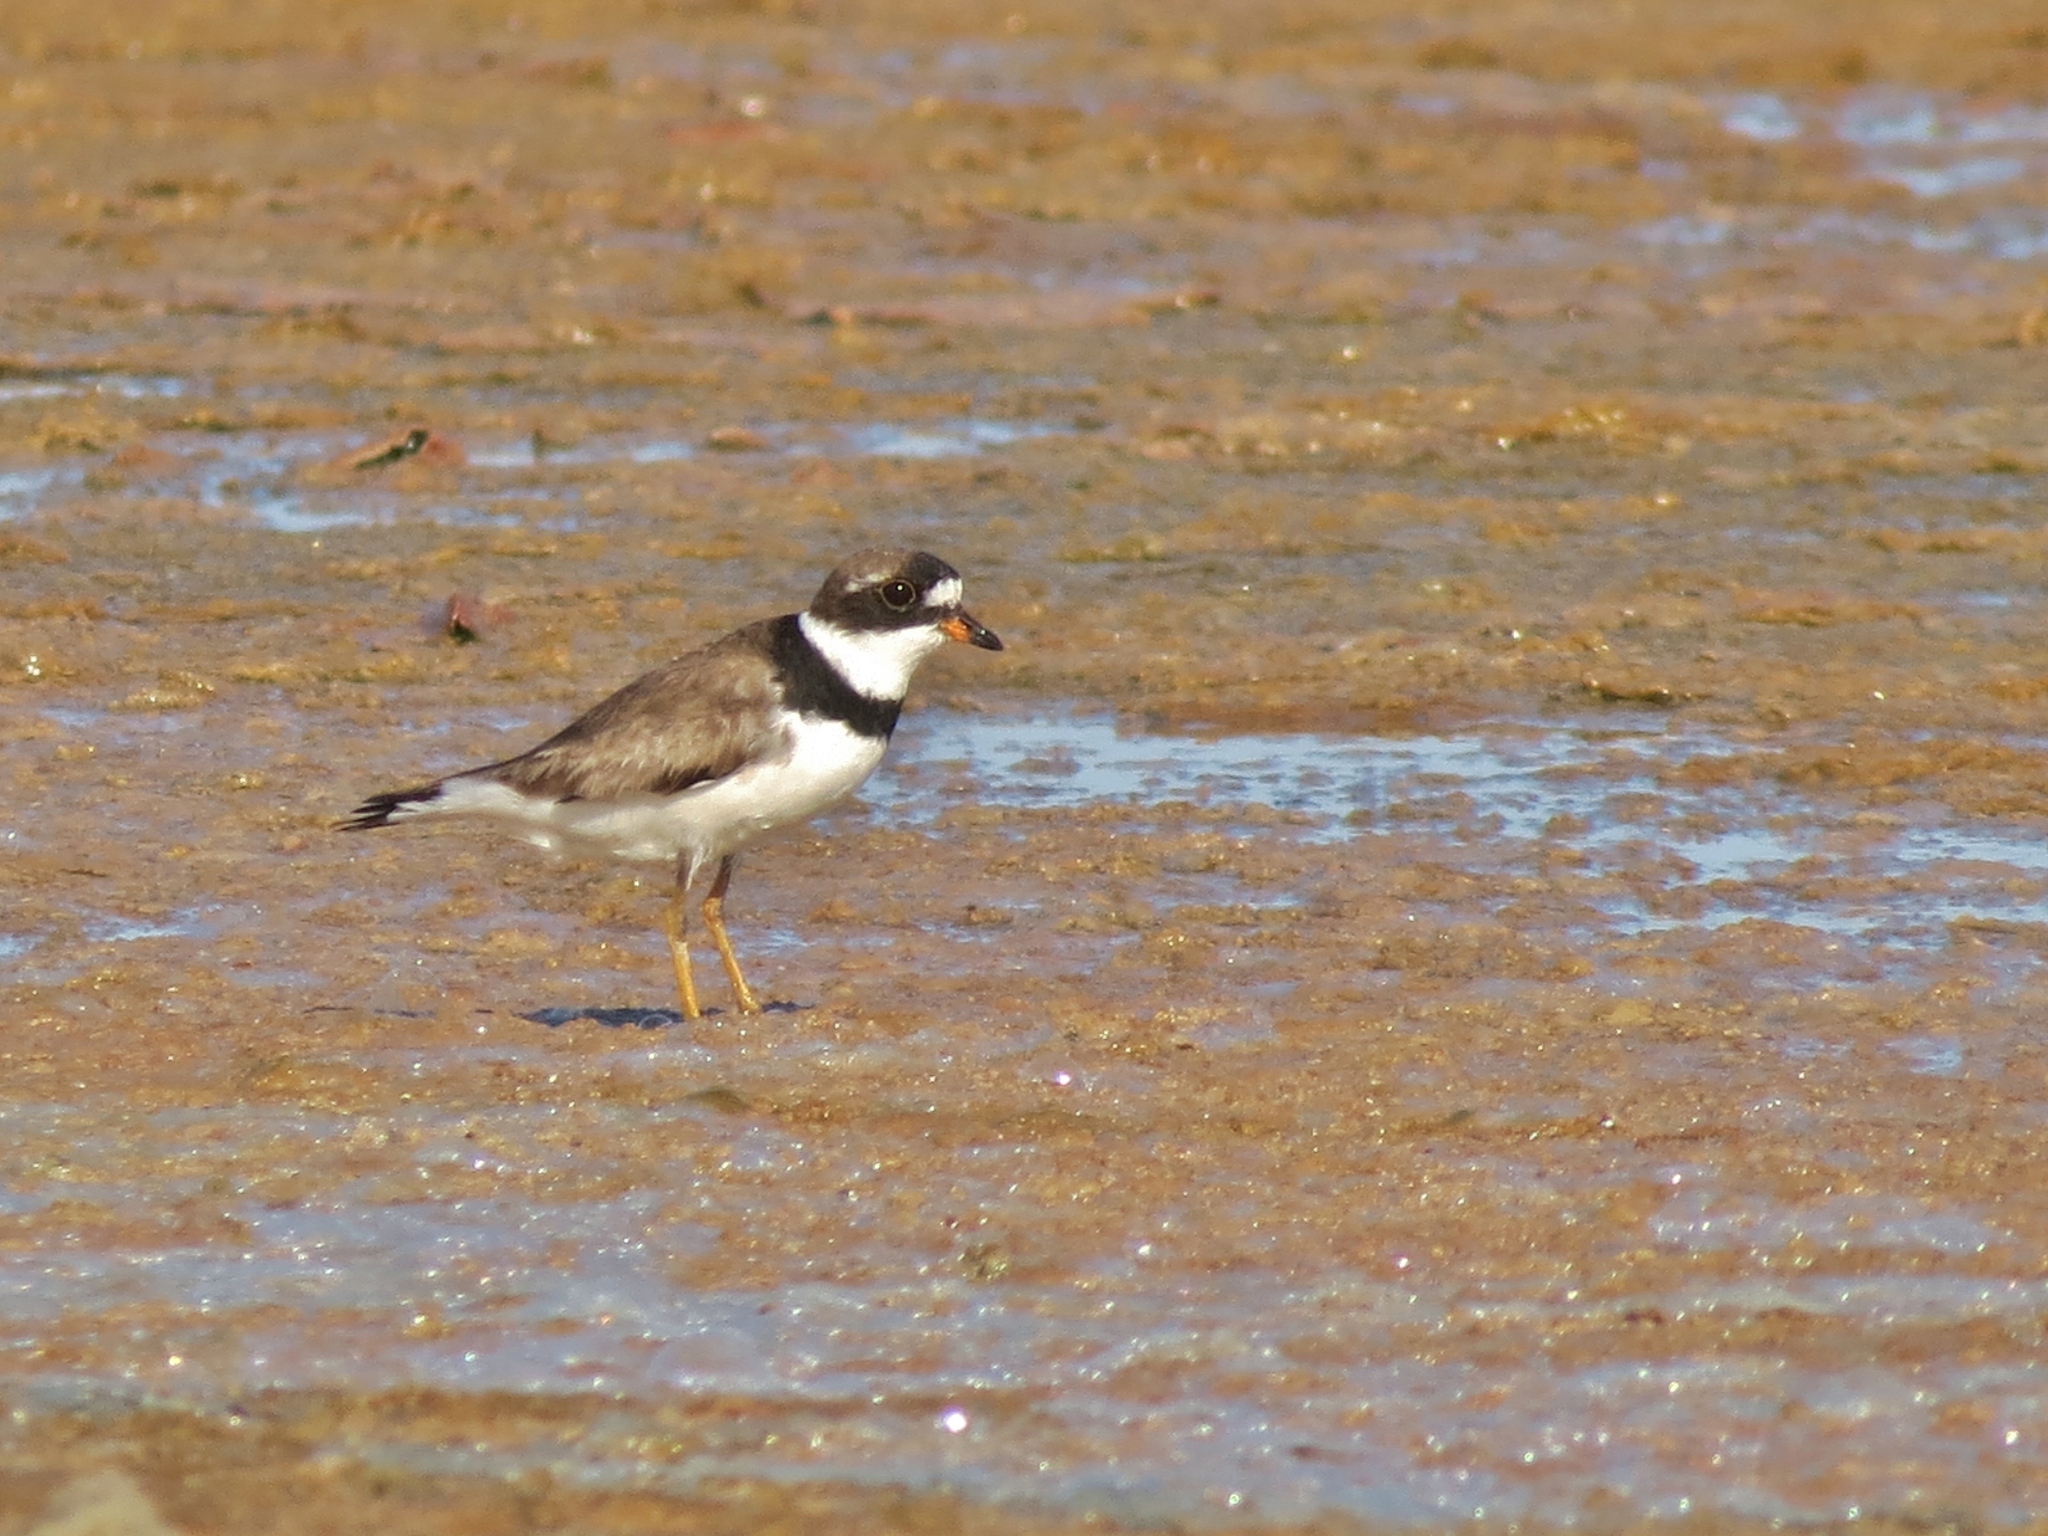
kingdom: Animalia
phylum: Chordata
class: Aves
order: Charadriiformes
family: Charadriidae
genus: Charadrius
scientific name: Charadrius semipalmatus
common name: Semipalmated plover
